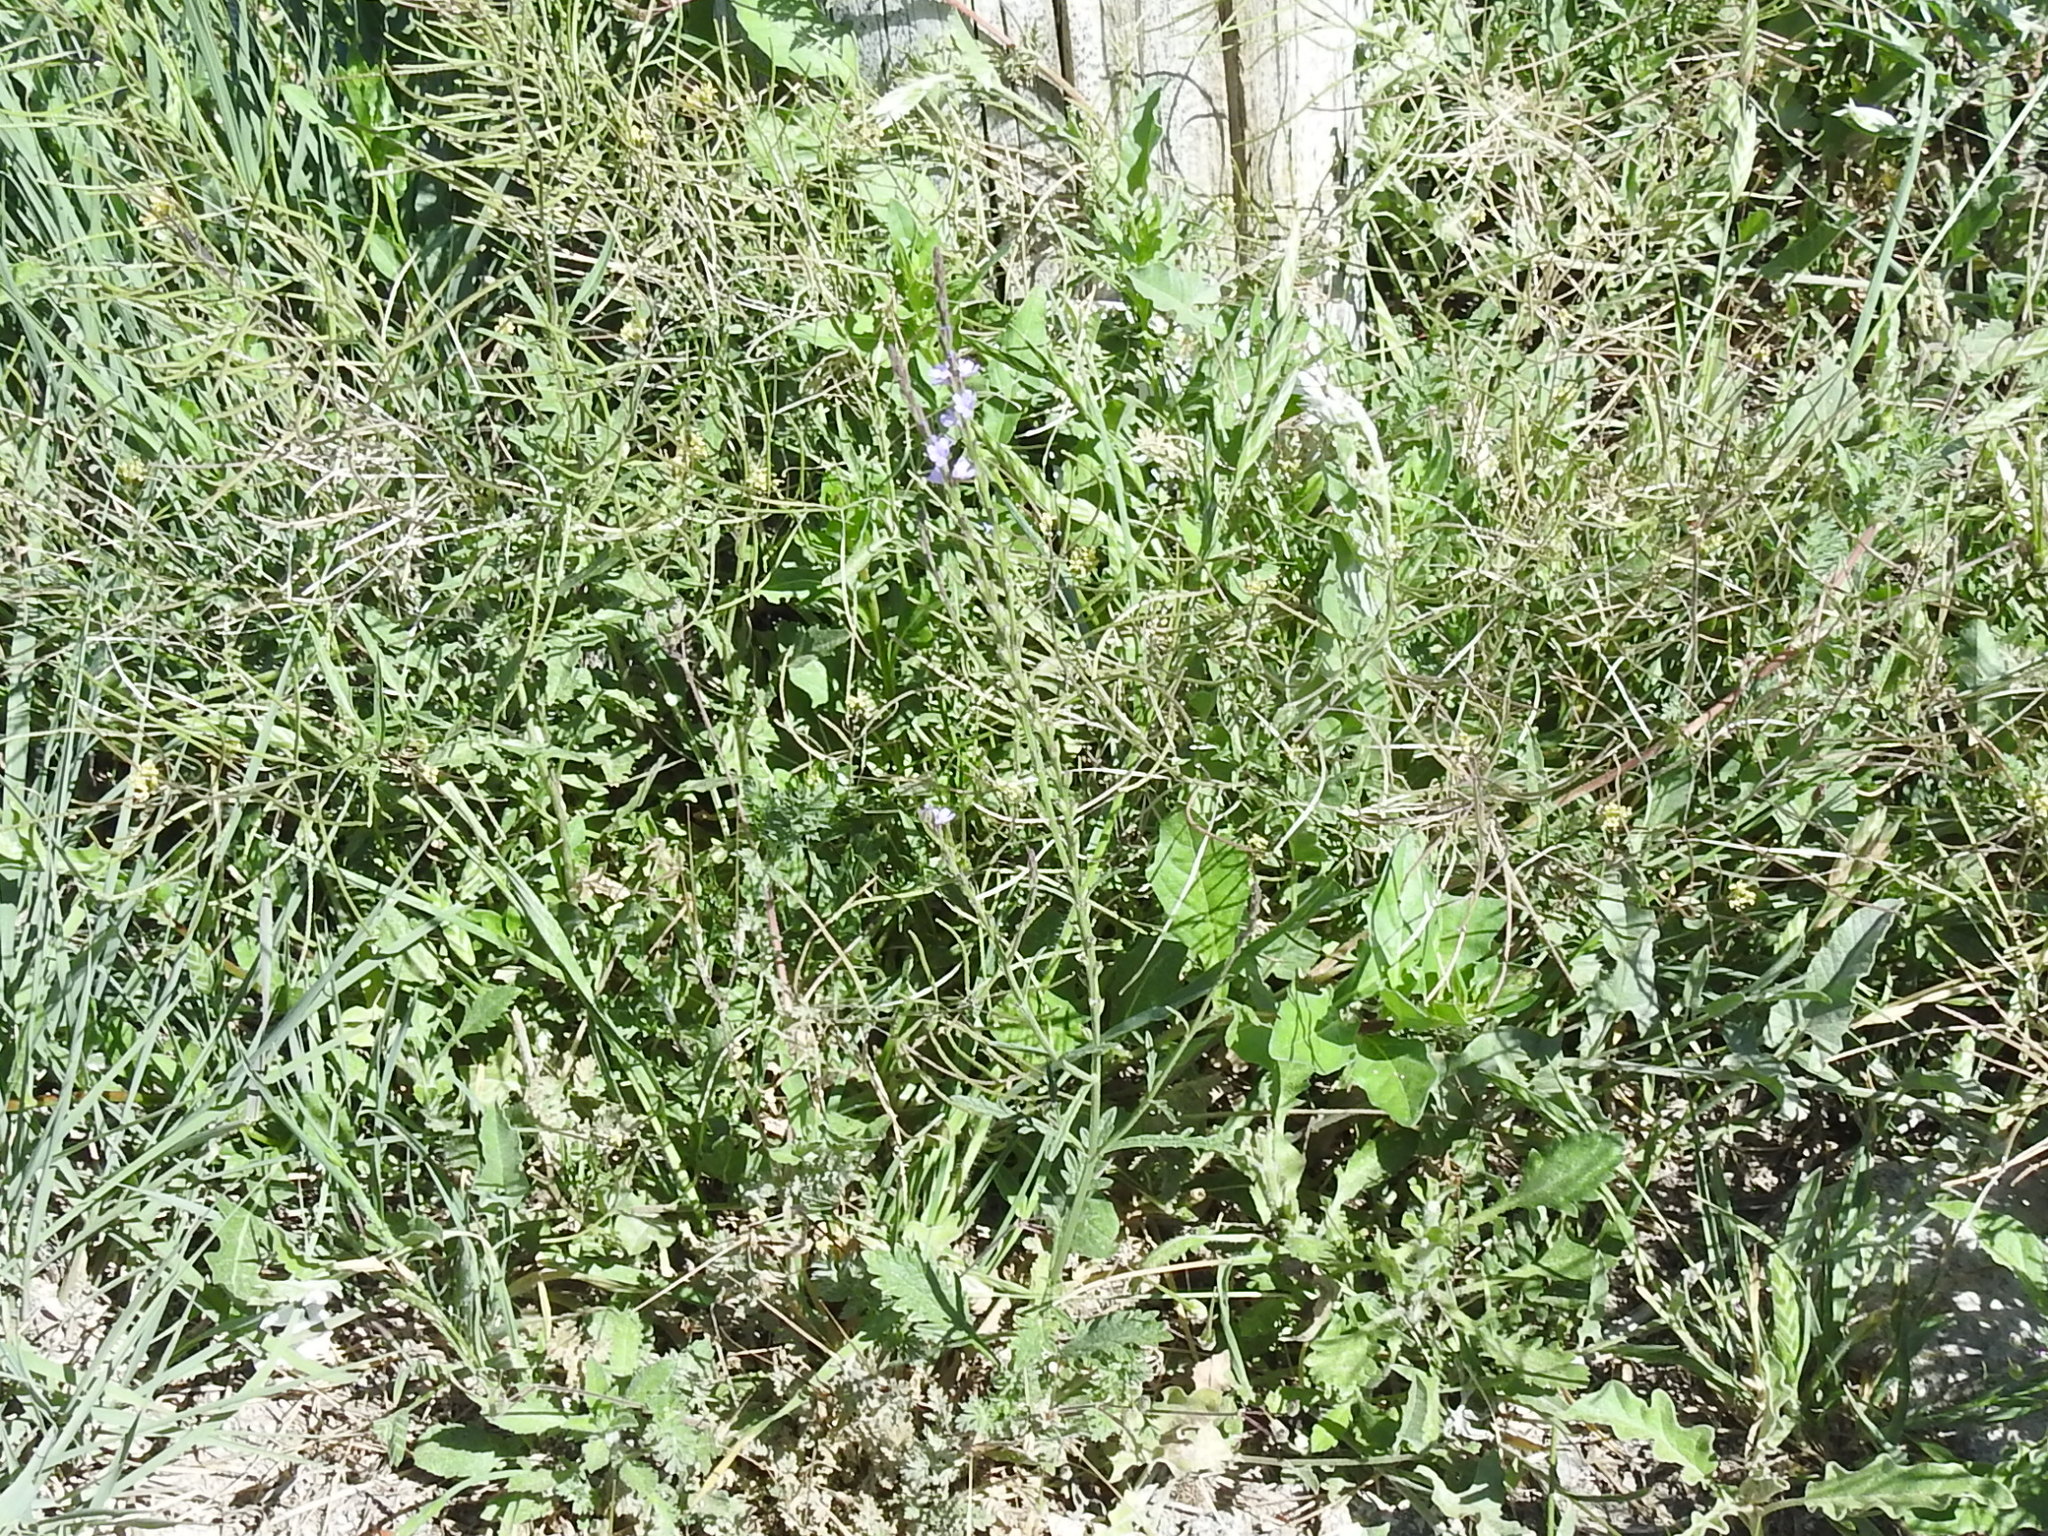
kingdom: Plantae
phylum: Tracheophyta
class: Magnoliopsida
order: Lamiales
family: Verbenaceae
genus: Verbena
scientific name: Verbena halei
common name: Texas vervain
